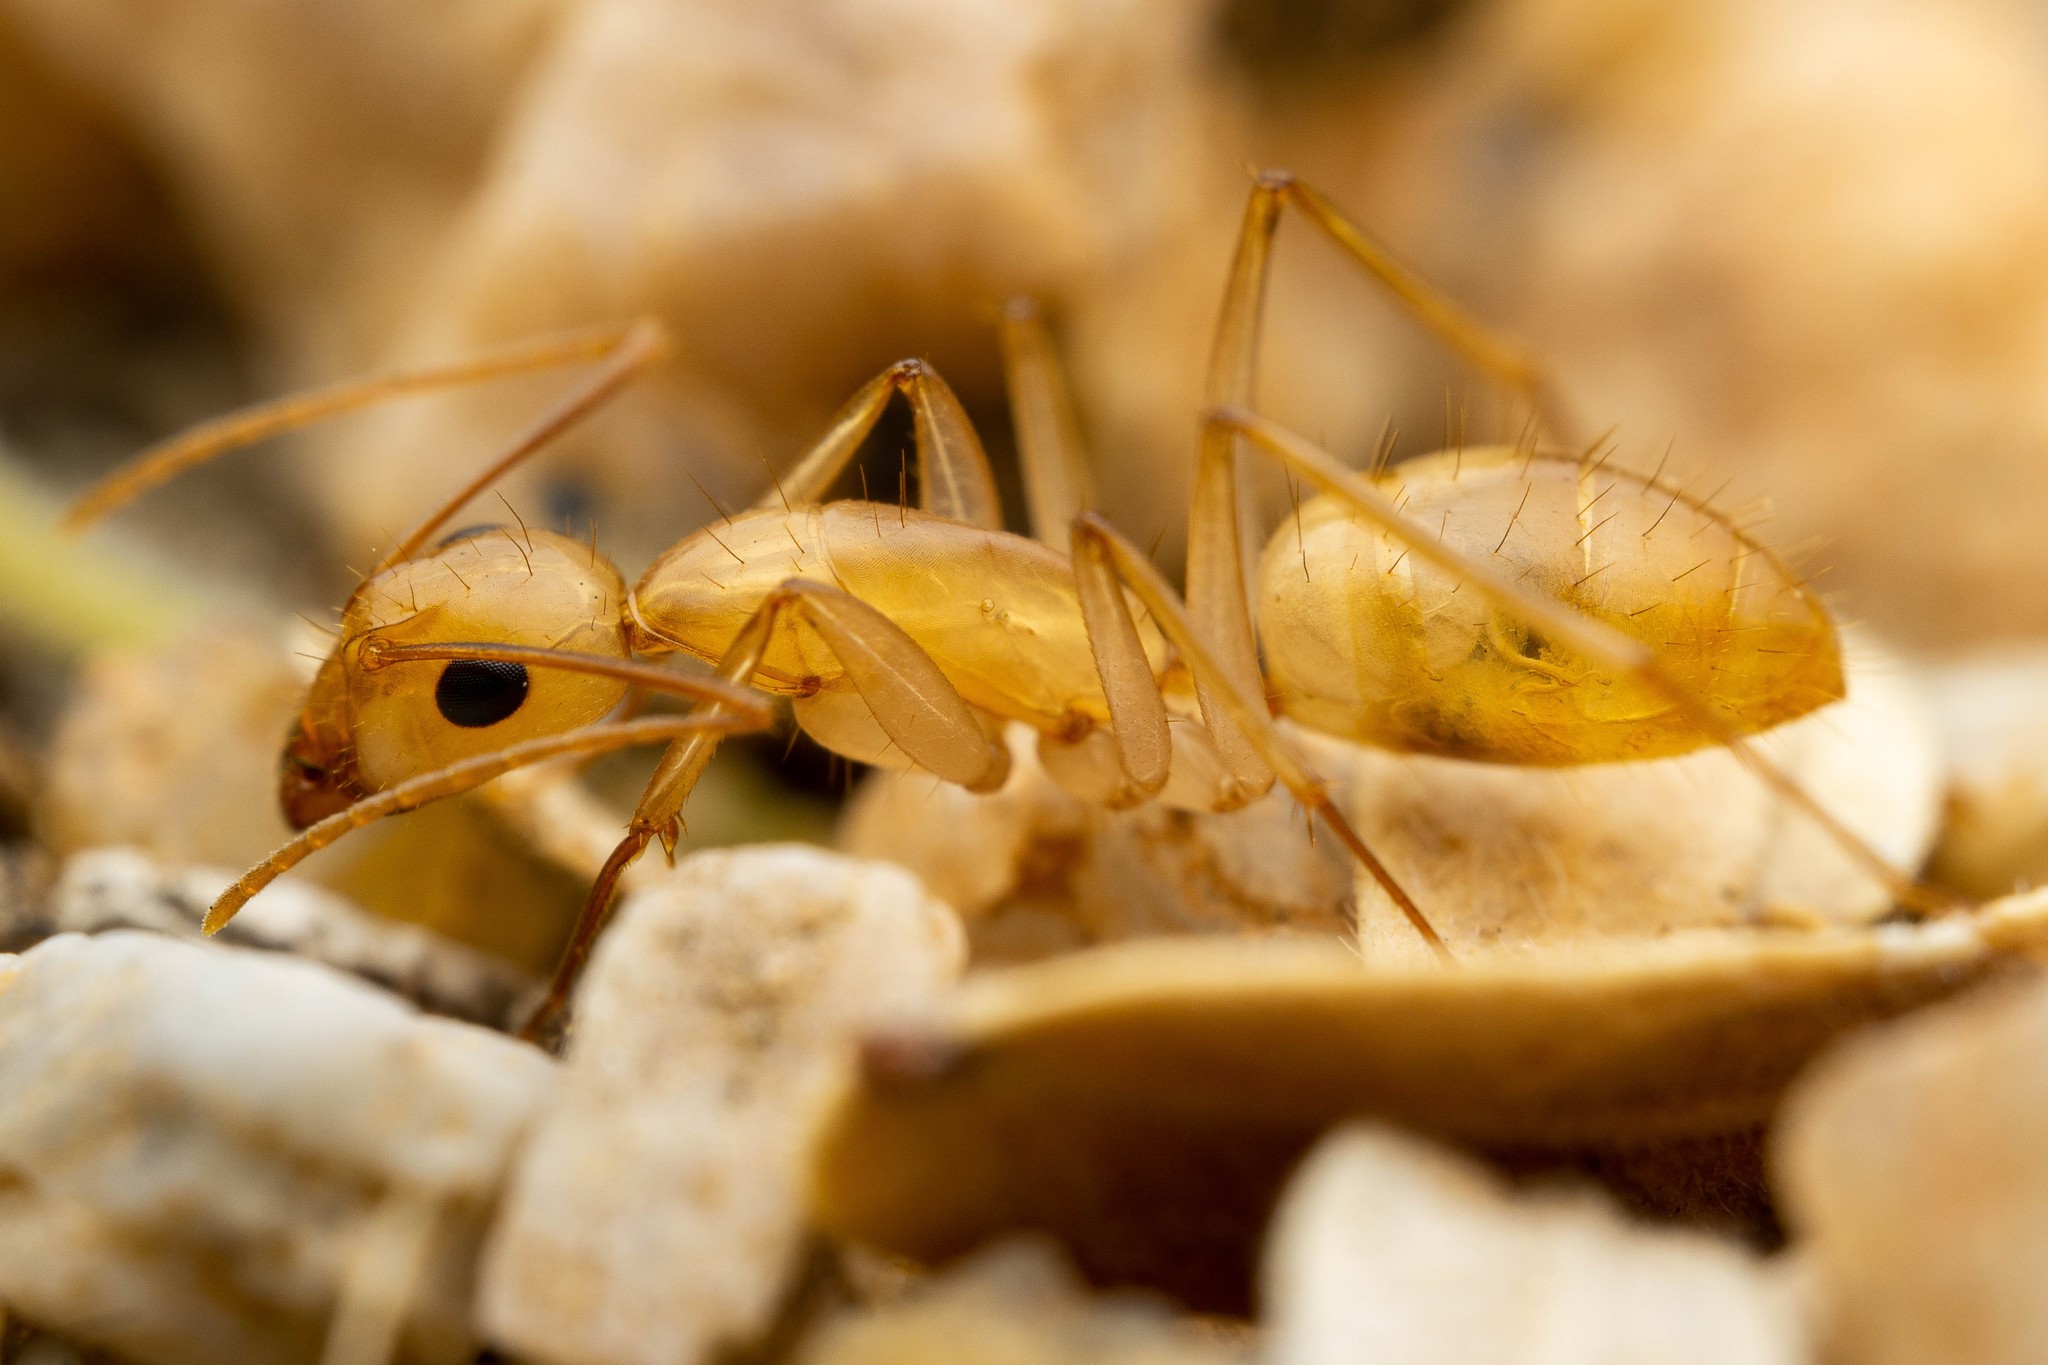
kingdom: Animalia
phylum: Arthropoda
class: Insecta
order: Hymenoptera
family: Formicidae
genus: Camponotus
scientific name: Camponotus fragilis
